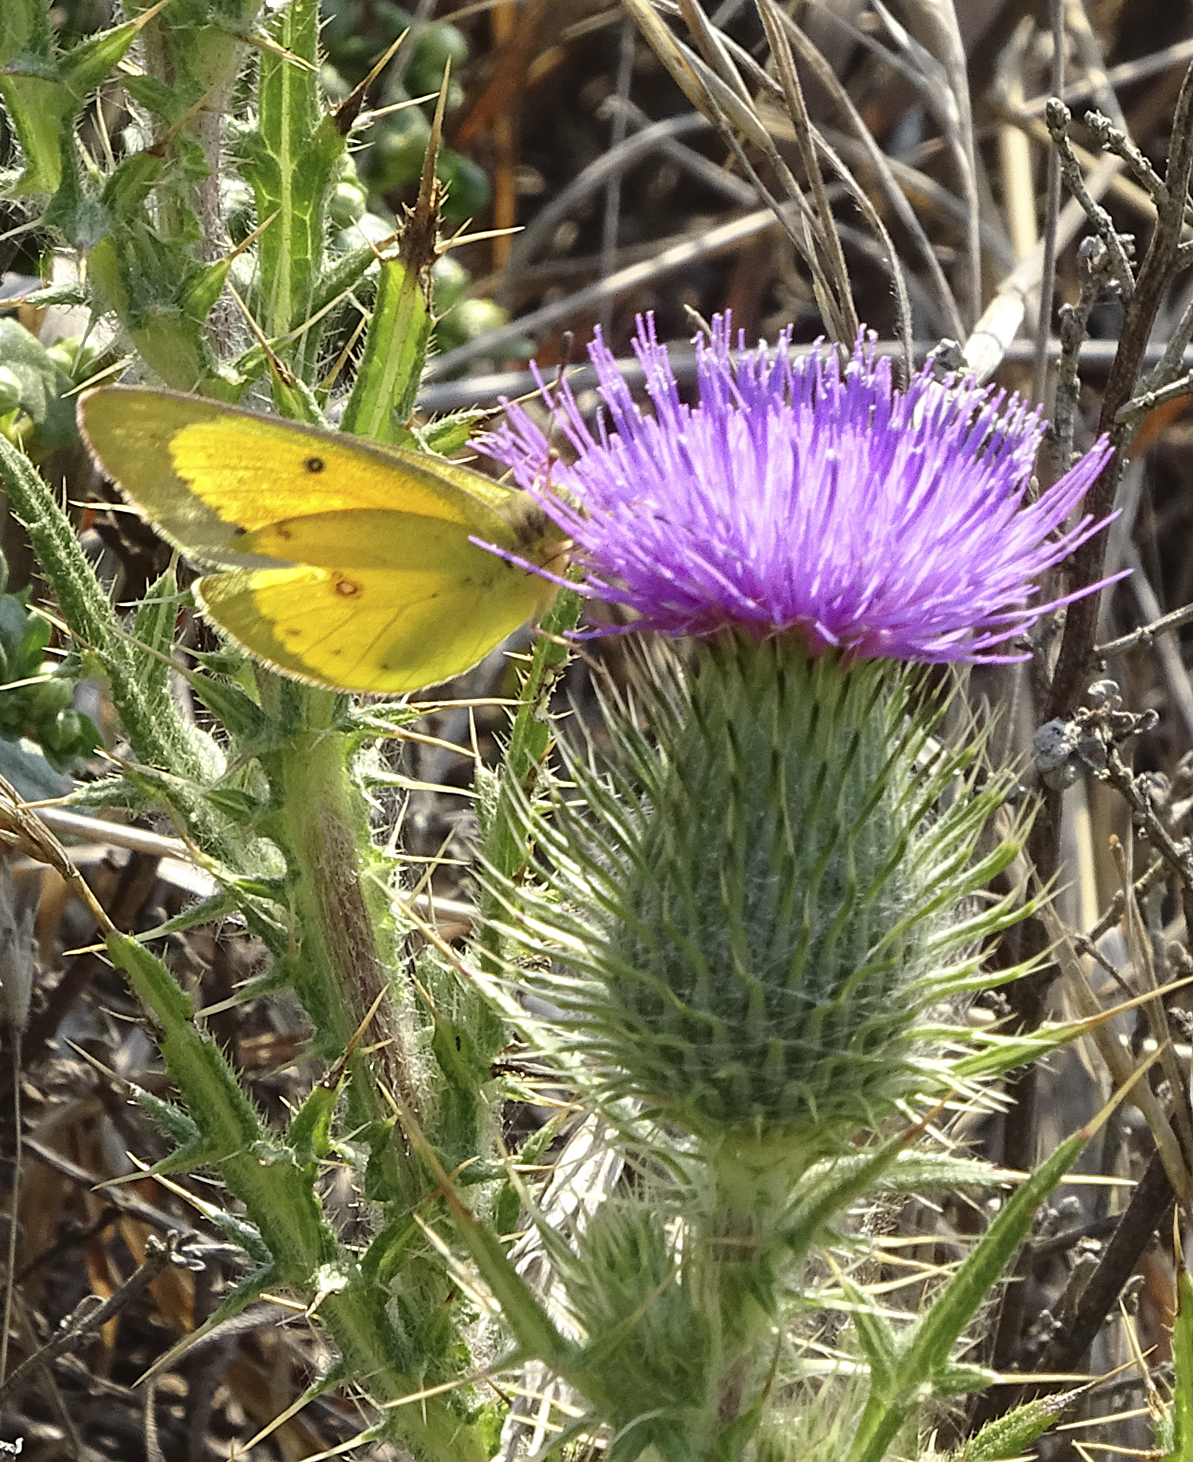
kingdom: Animalia
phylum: Arthropoda
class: Insecta
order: Lepidoptera
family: Pieridae
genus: Colias
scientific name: Colias eurytheme
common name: Alfalfa butterfly
